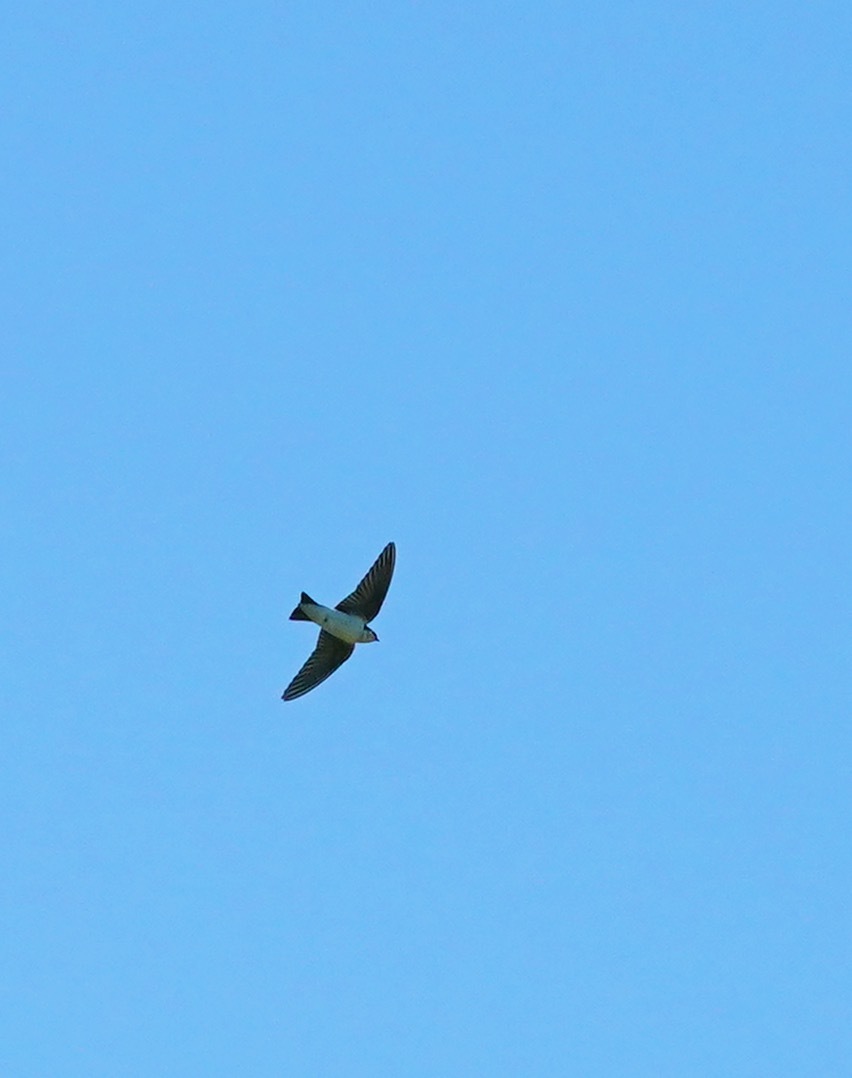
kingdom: Animalia
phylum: Chordata
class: Aves
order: Passeriformes
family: Hirundinidae
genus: Tachycineta
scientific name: Tachycineta bicolor
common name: Tree swallow
